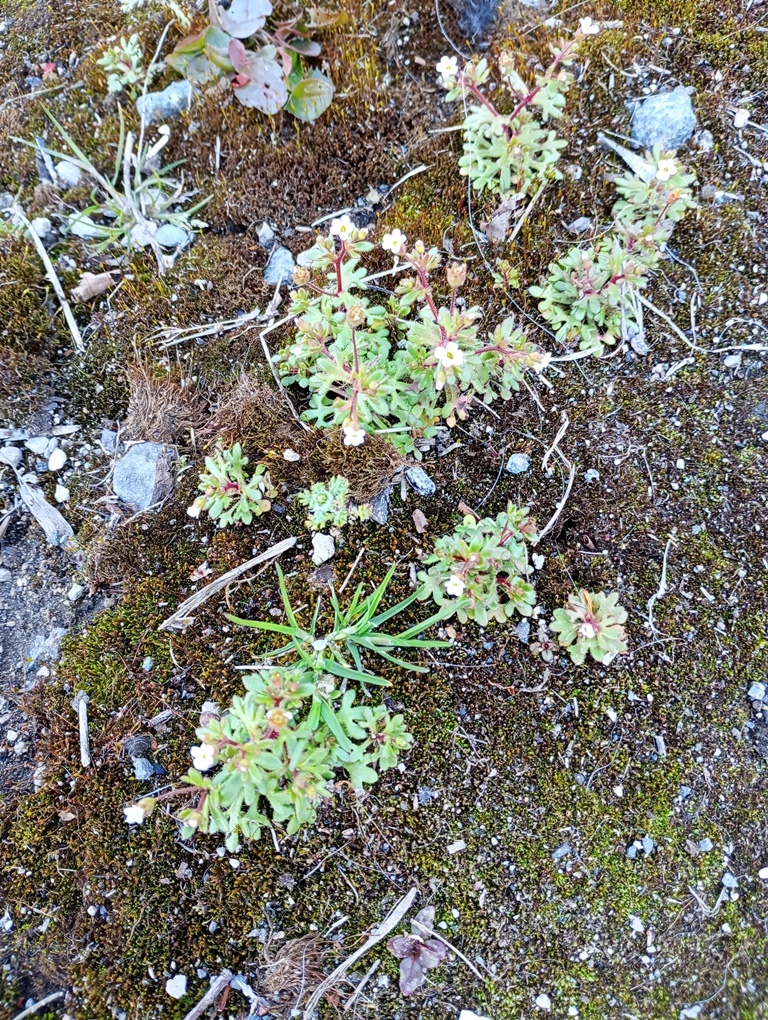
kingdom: Plantae
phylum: Tracheophyta
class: Magnoliopsida
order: Saxifragales
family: Saxifragaceae
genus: Saxifraga
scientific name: Saxifraga tridactylites
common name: Rue-leaved saxifrage
